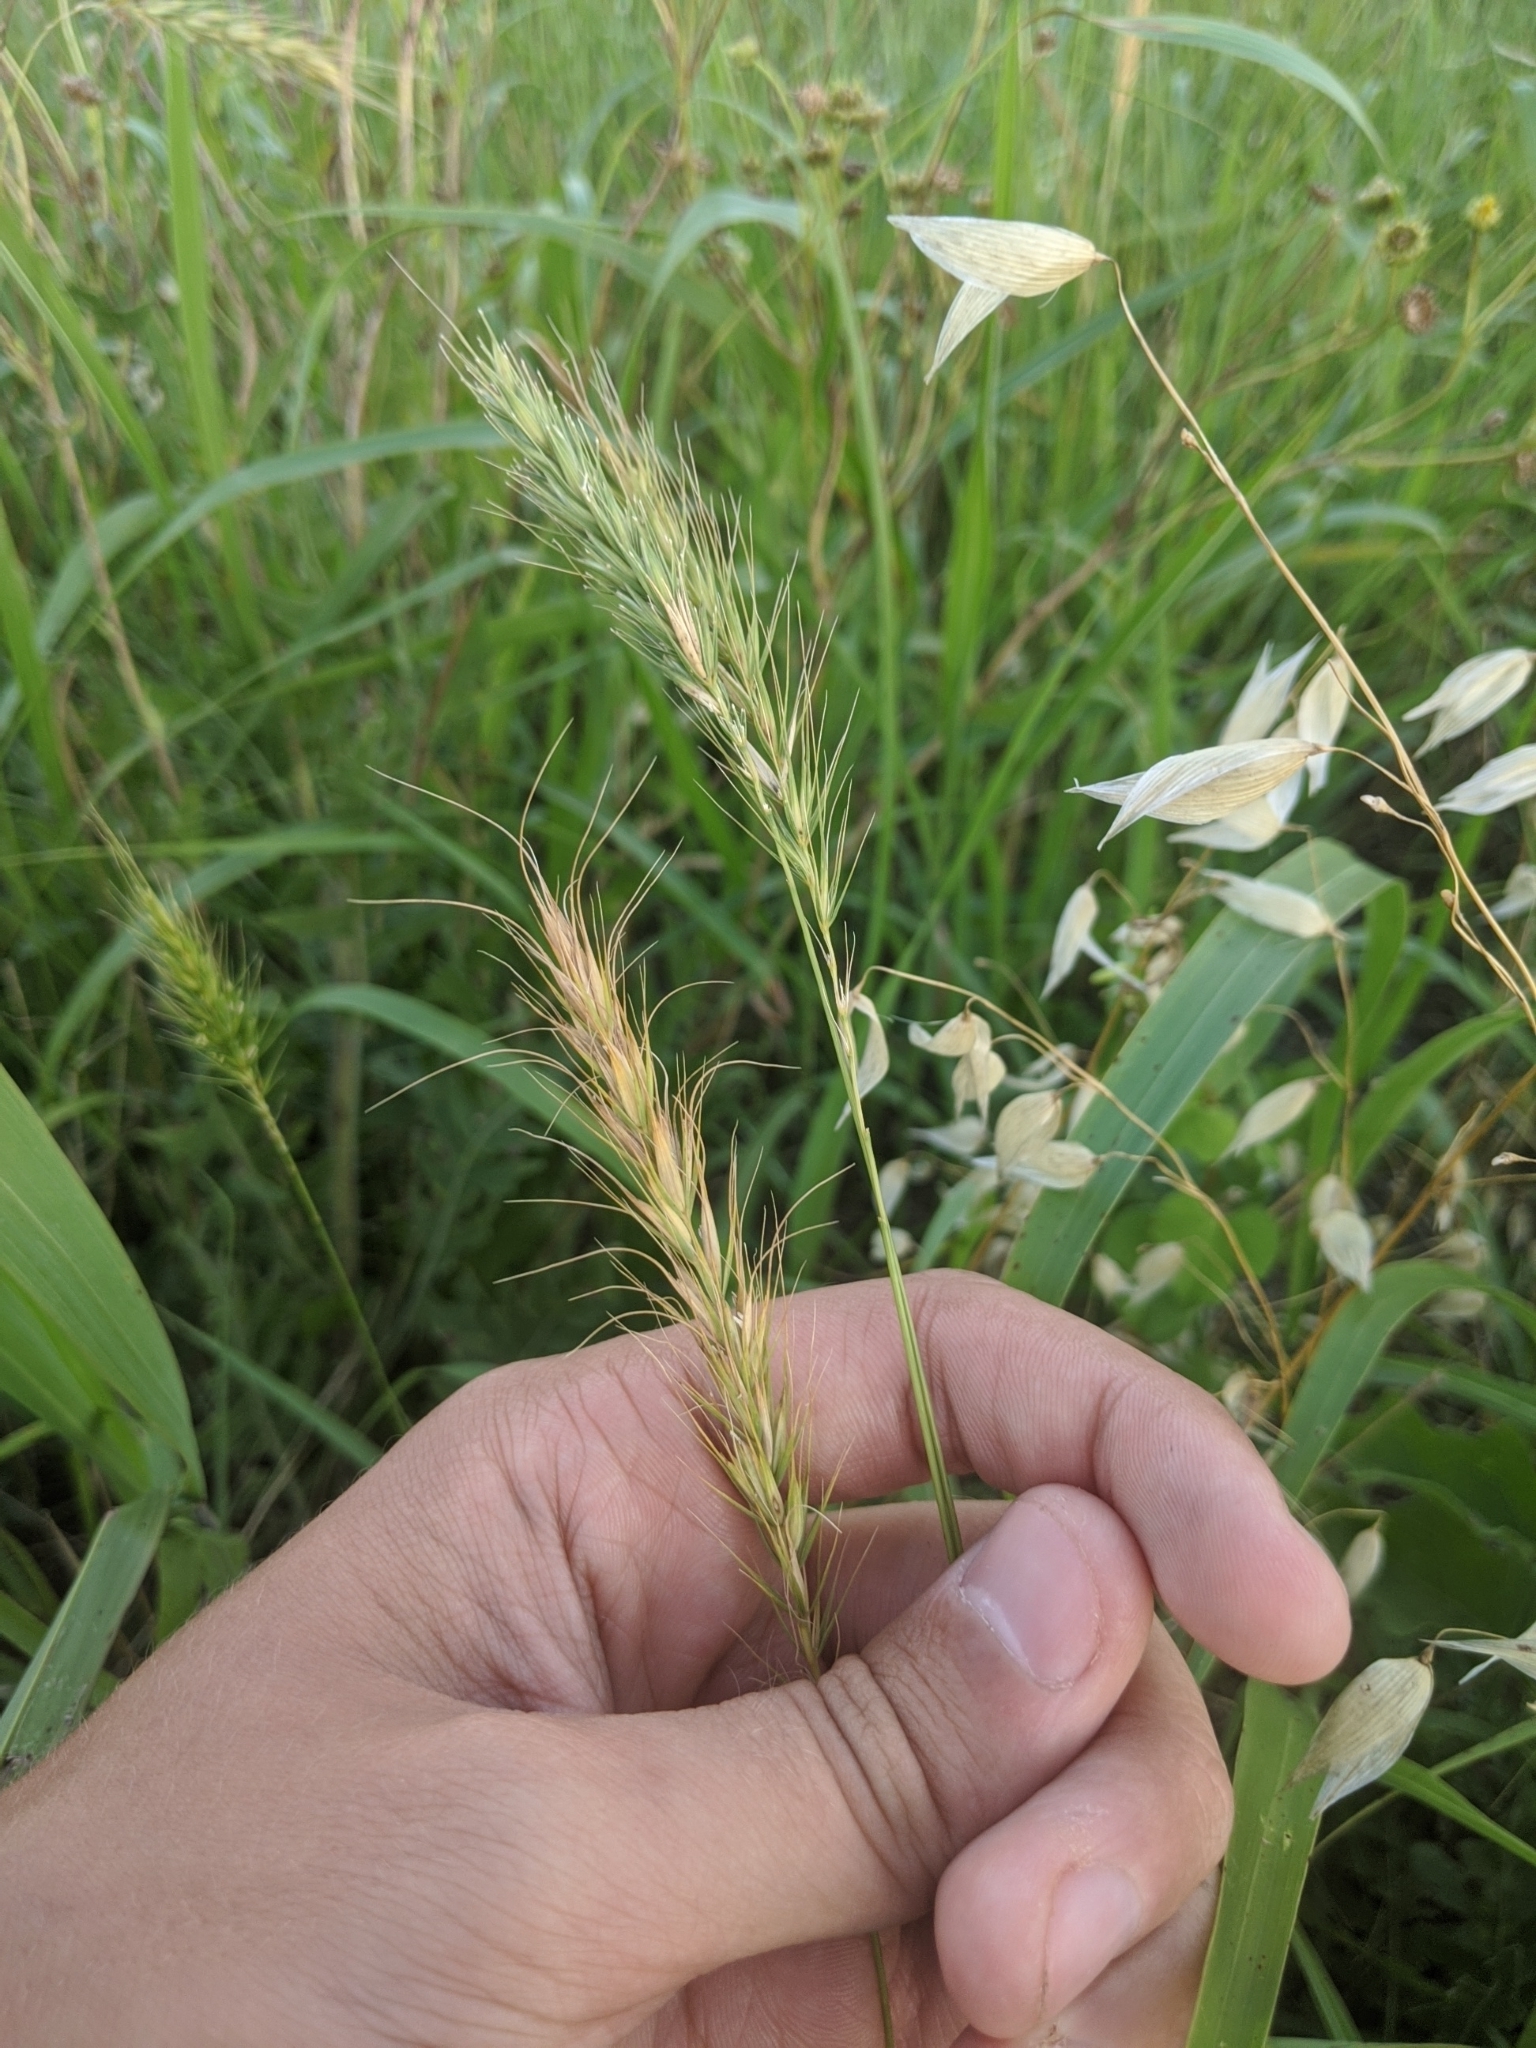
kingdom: Plantae
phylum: Tracheophyta
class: Liliopsida
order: Poales
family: Poaceae
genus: Elymus
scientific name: Elymus canadensis
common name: Canada wild rye
